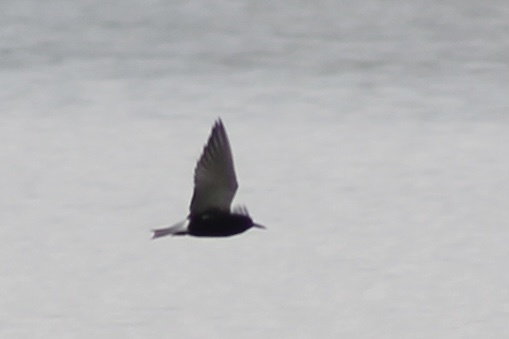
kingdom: Animalia
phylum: Chordata
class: Aves
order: Charadriiformes
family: Laridae
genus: Chlidonias
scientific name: Chlidonias niger
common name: Black tern
